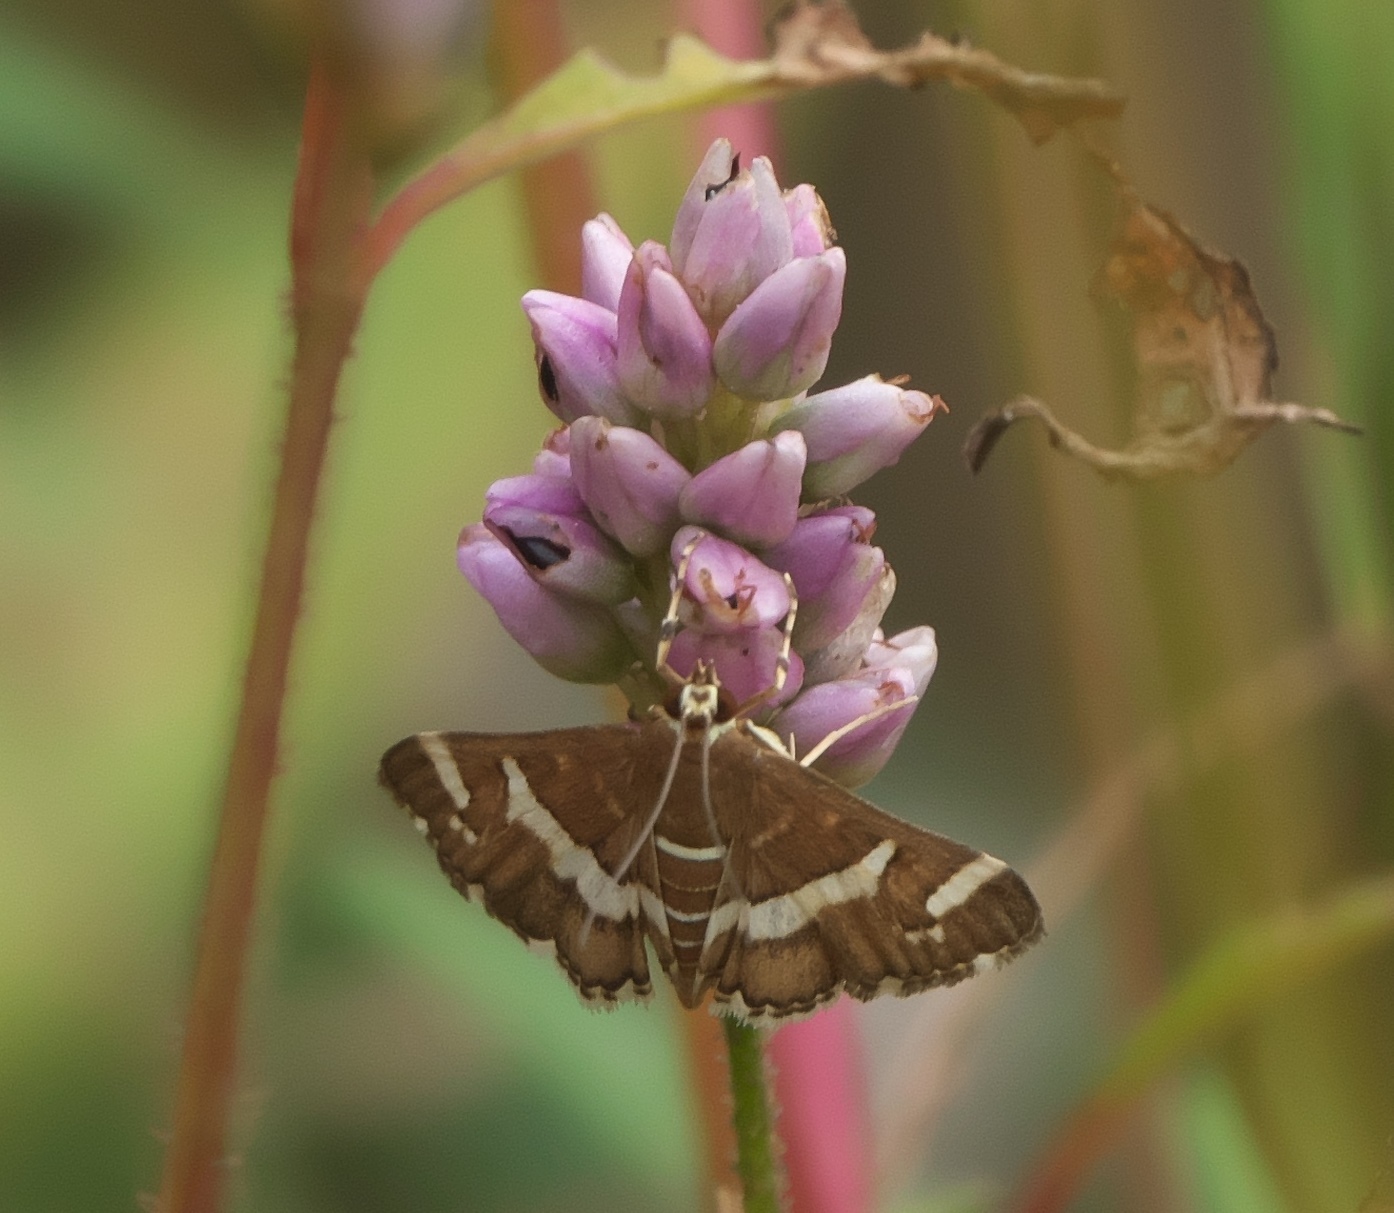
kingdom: Animalia
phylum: Arthropoda
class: Insecta
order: Lepidoptera
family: Crambidae
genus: Spoladea
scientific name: Spoladea recurvalis
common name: Beet webworm moth
